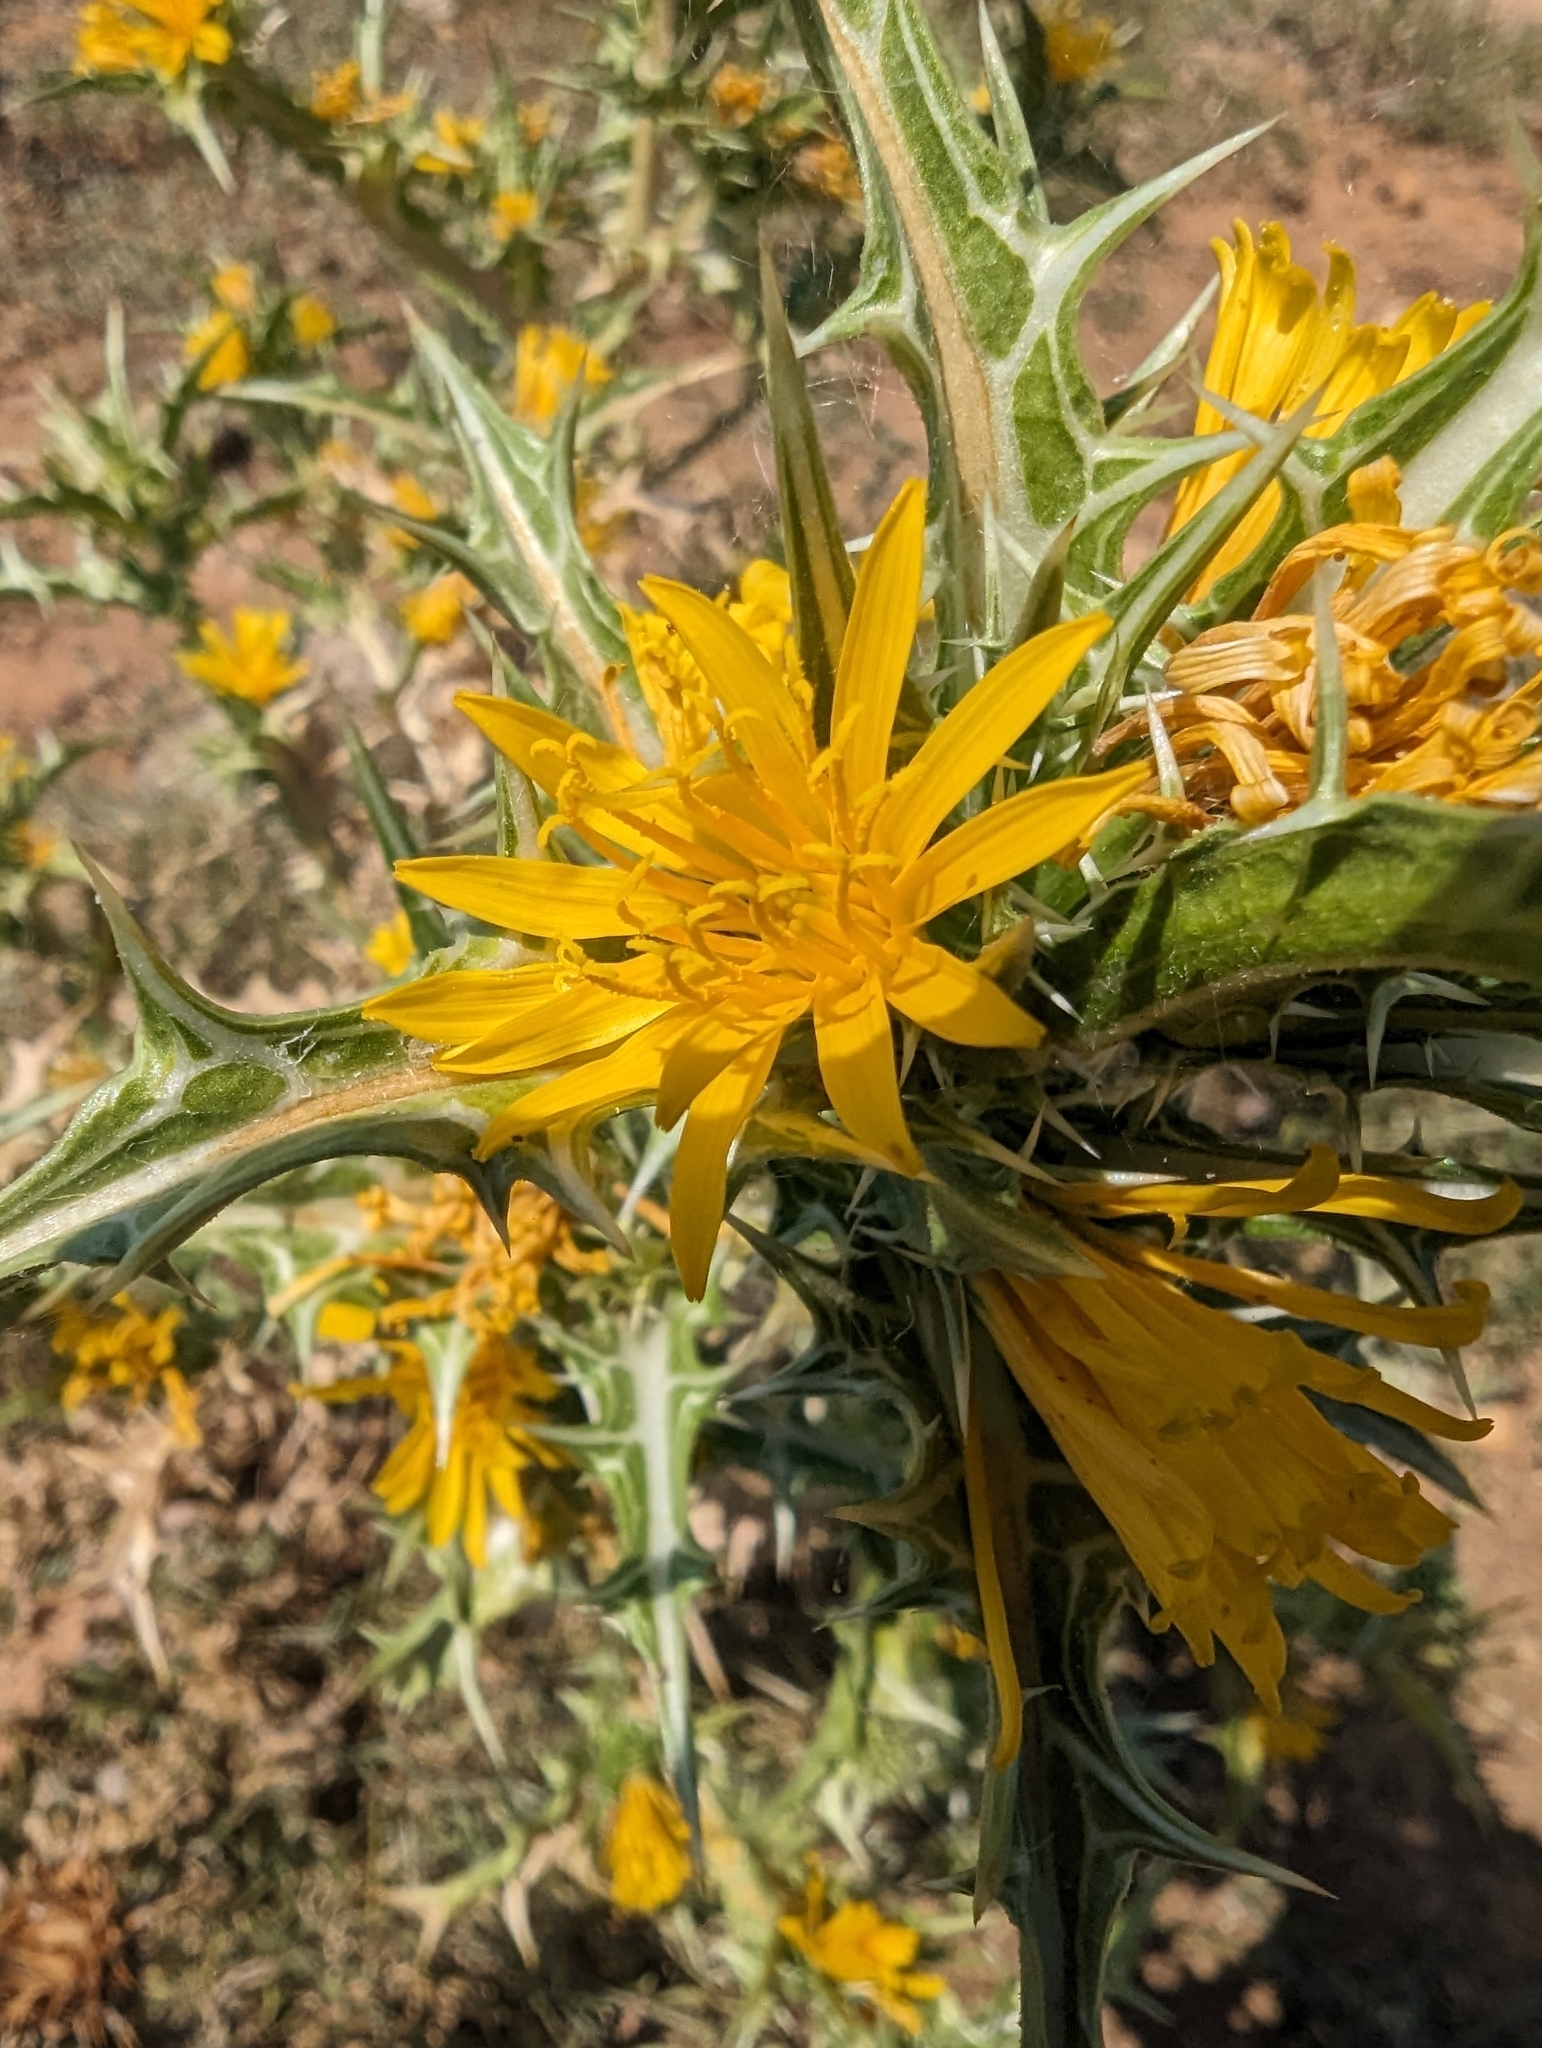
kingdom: Plantae
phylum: Tracheophyta
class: Magnoliopsida
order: Asterales
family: Asteraceae
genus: Scolymus
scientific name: Scolymus hispanicus
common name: Golden thistle
